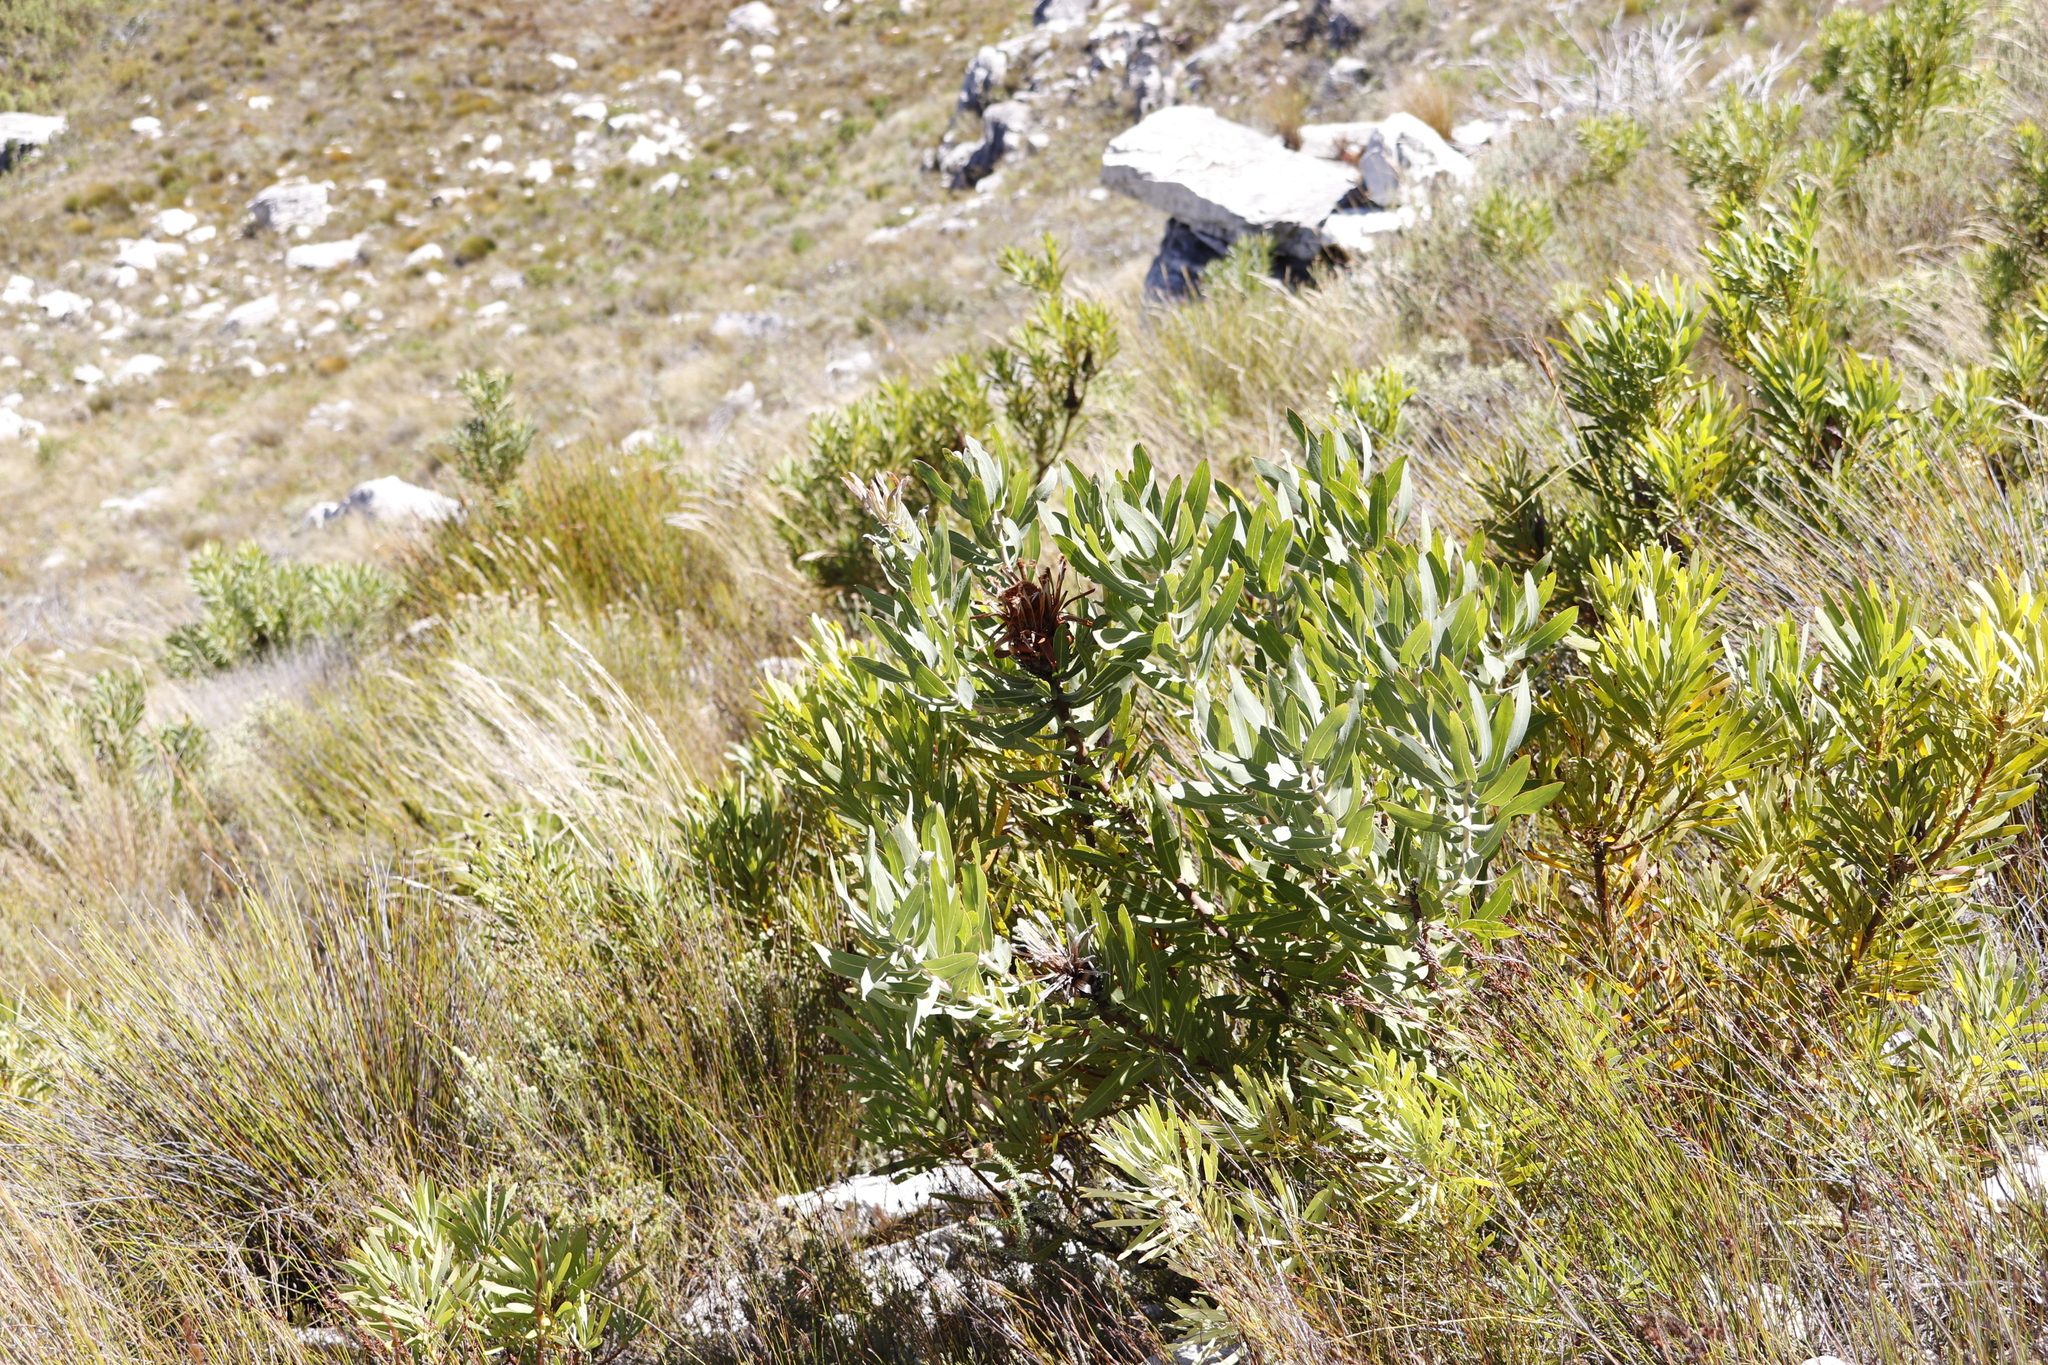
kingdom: Plantae
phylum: Tracheophyta
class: Magnoliopsida
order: Proteales
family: Proteaceae
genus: Protea
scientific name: Protea laurifolia
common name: Grey-leaf sugarbsh
